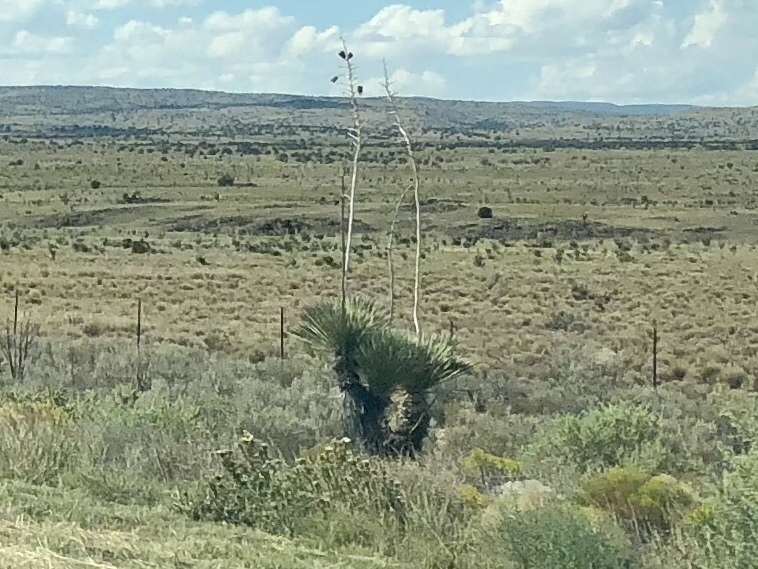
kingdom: Plantae
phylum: Tracheophyta
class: Liliopsida
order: Asparagales
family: Asparagaceae
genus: Yucca
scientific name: Yucca elata
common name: Palmella
